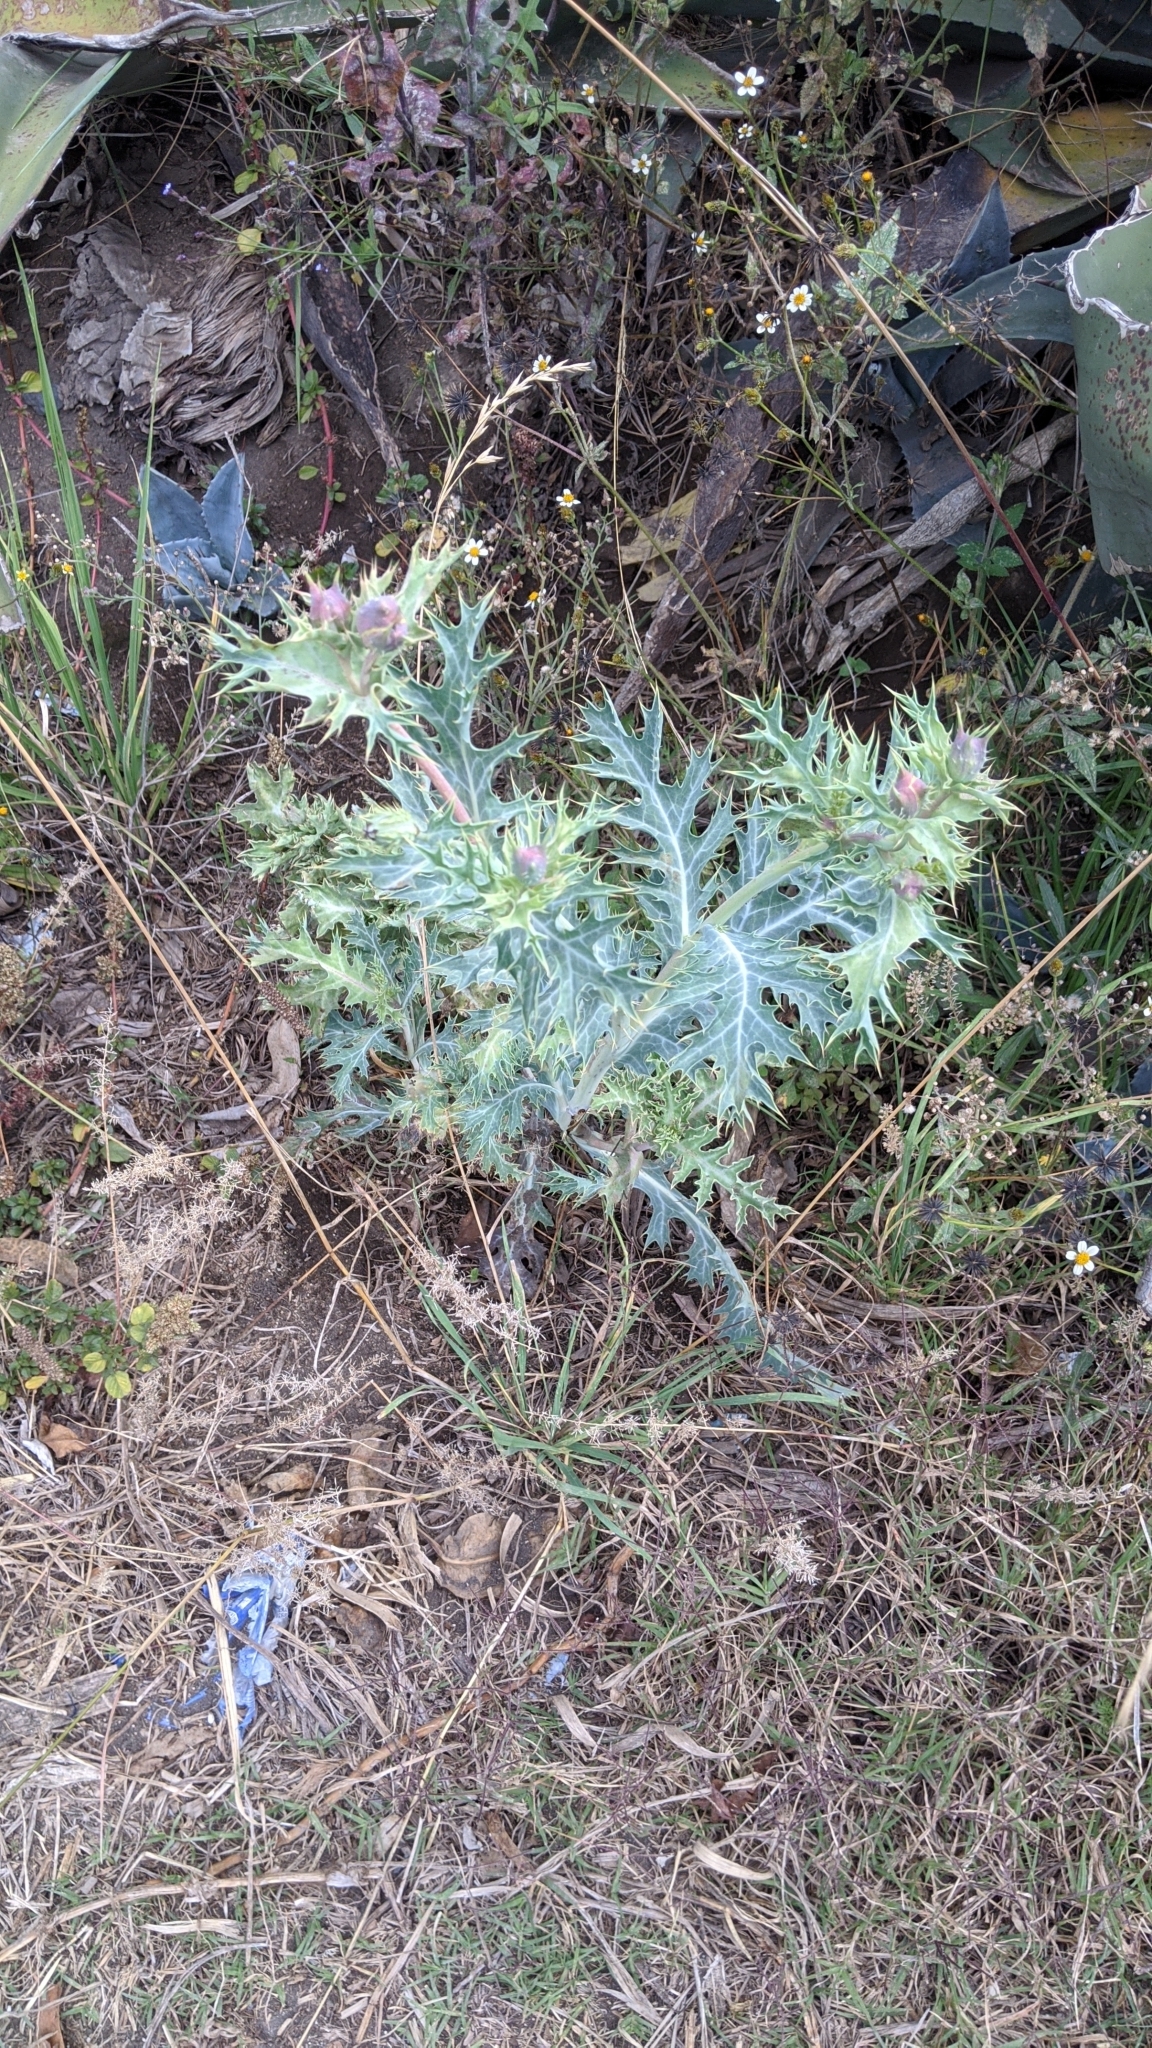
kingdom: Plantae
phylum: Tracheophyta
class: Magnoliopsida
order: Ranunculales
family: Papaveraceae
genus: Argemone
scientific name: Argemone mexicana
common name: Mexican poppy
